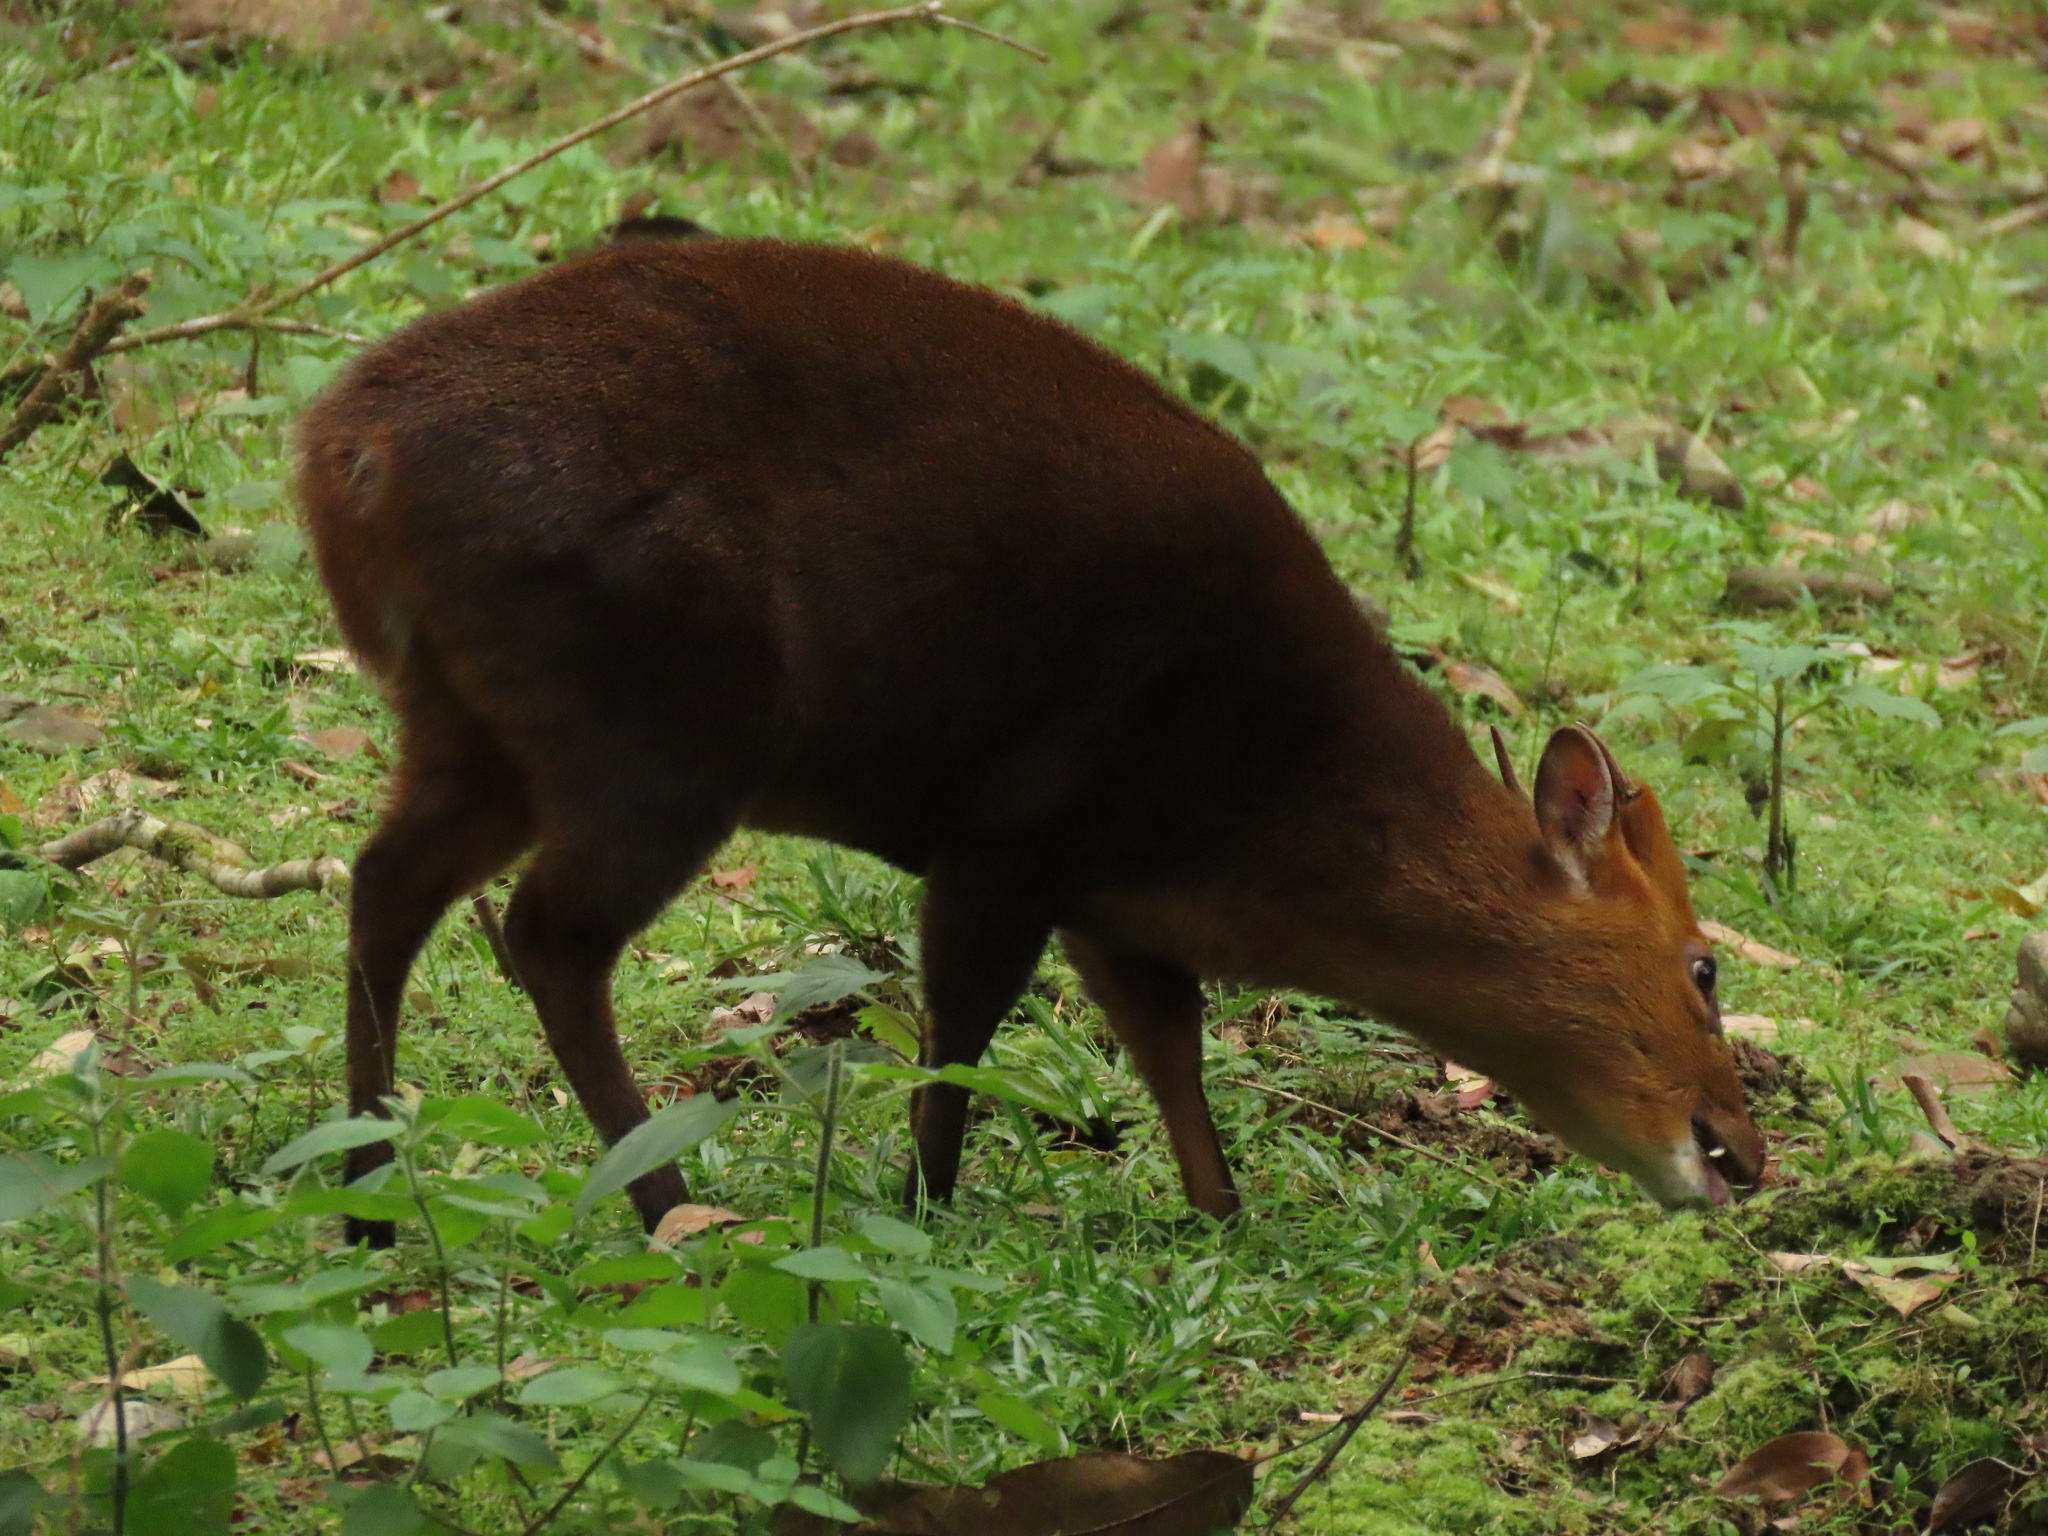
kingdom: Animalia
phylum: Chordata
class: Mammalia
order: Artiodactyla
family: Cervidae
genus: Muntiacus
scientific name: Muntiacus reevesi
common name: Reeves' muntjac
